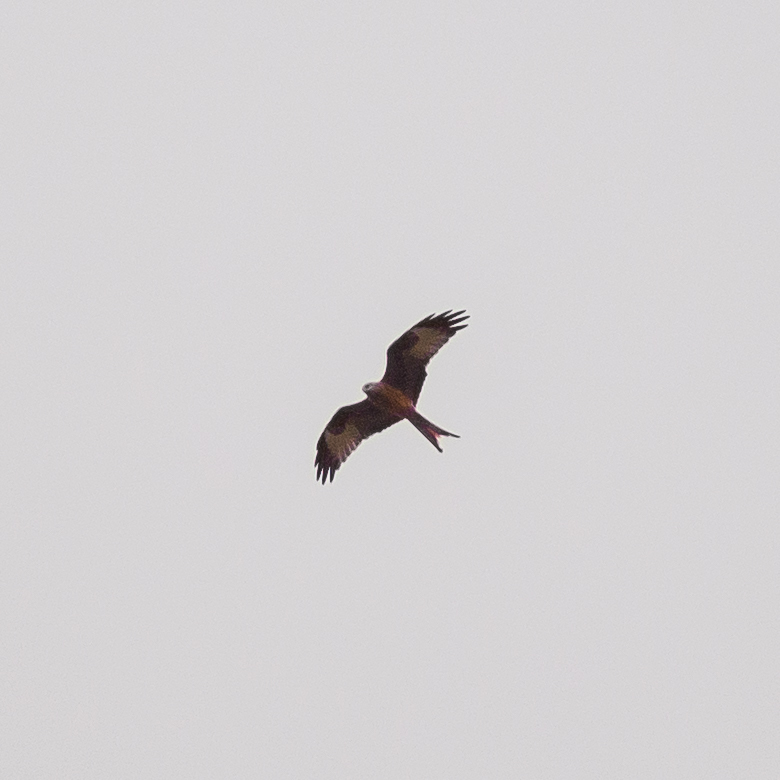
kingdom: Animalia
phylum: Chordata
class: Aves
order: Accipitriformes
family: Accipitridae
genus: Milvus
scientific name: Milvus milvus
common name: Red kite
